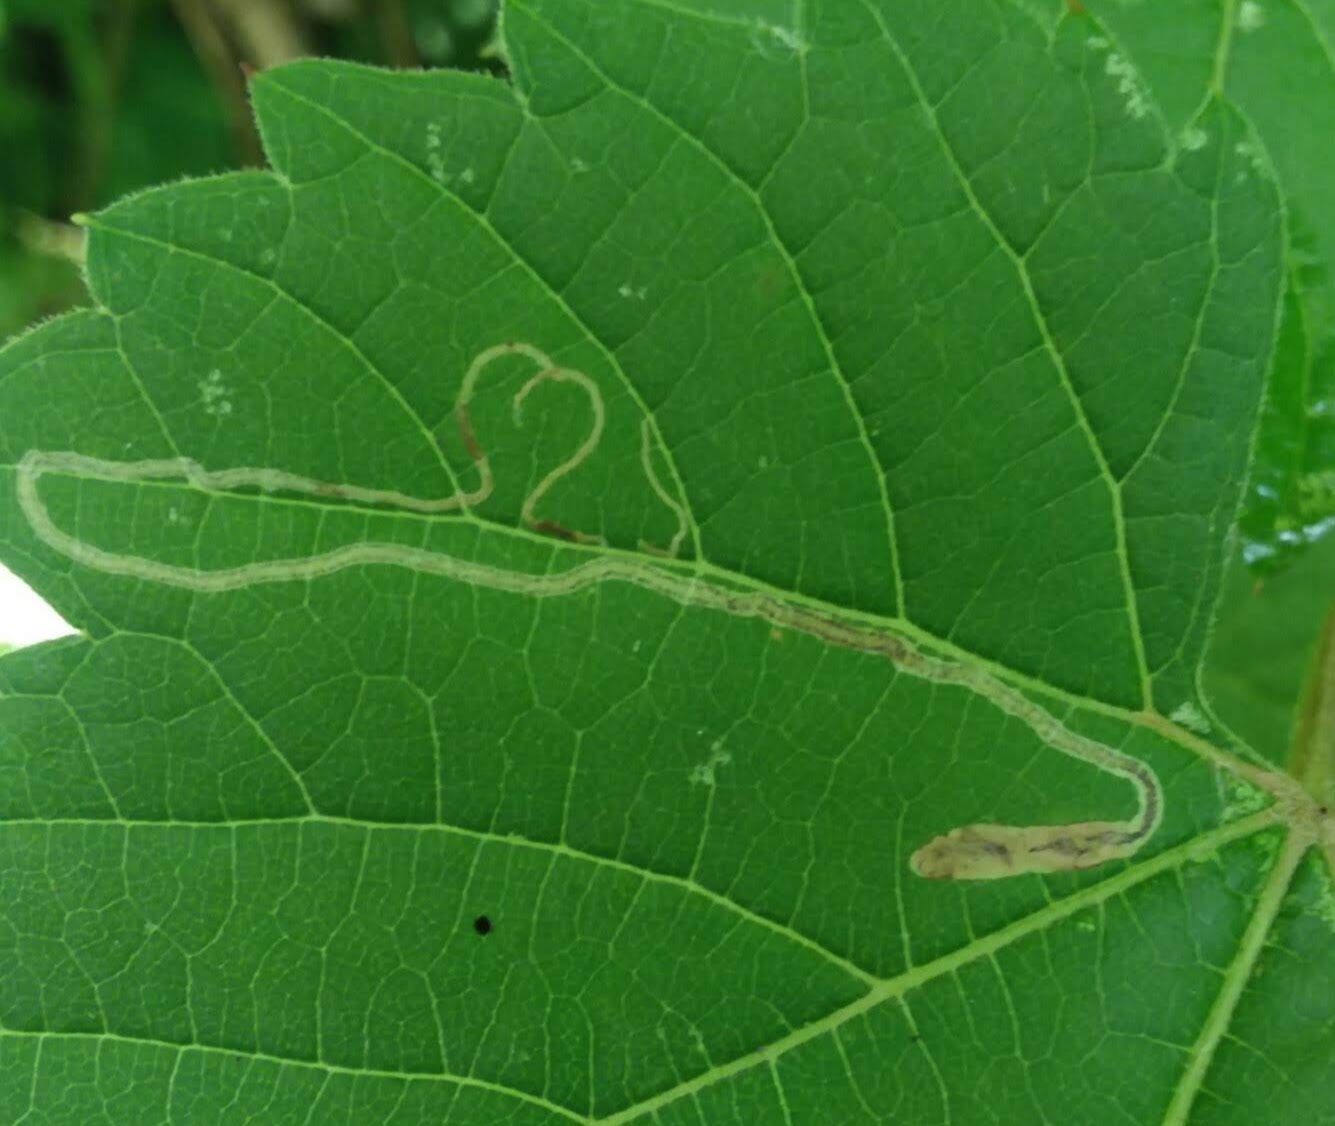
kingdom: Animalia
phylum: Arthropoda
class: Insecta
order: Lepidoptera
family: Gracillariidae
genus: Phyllocnistis
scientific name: Phyllocnistis vitifoliella
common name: Grape leaf-miner moth
